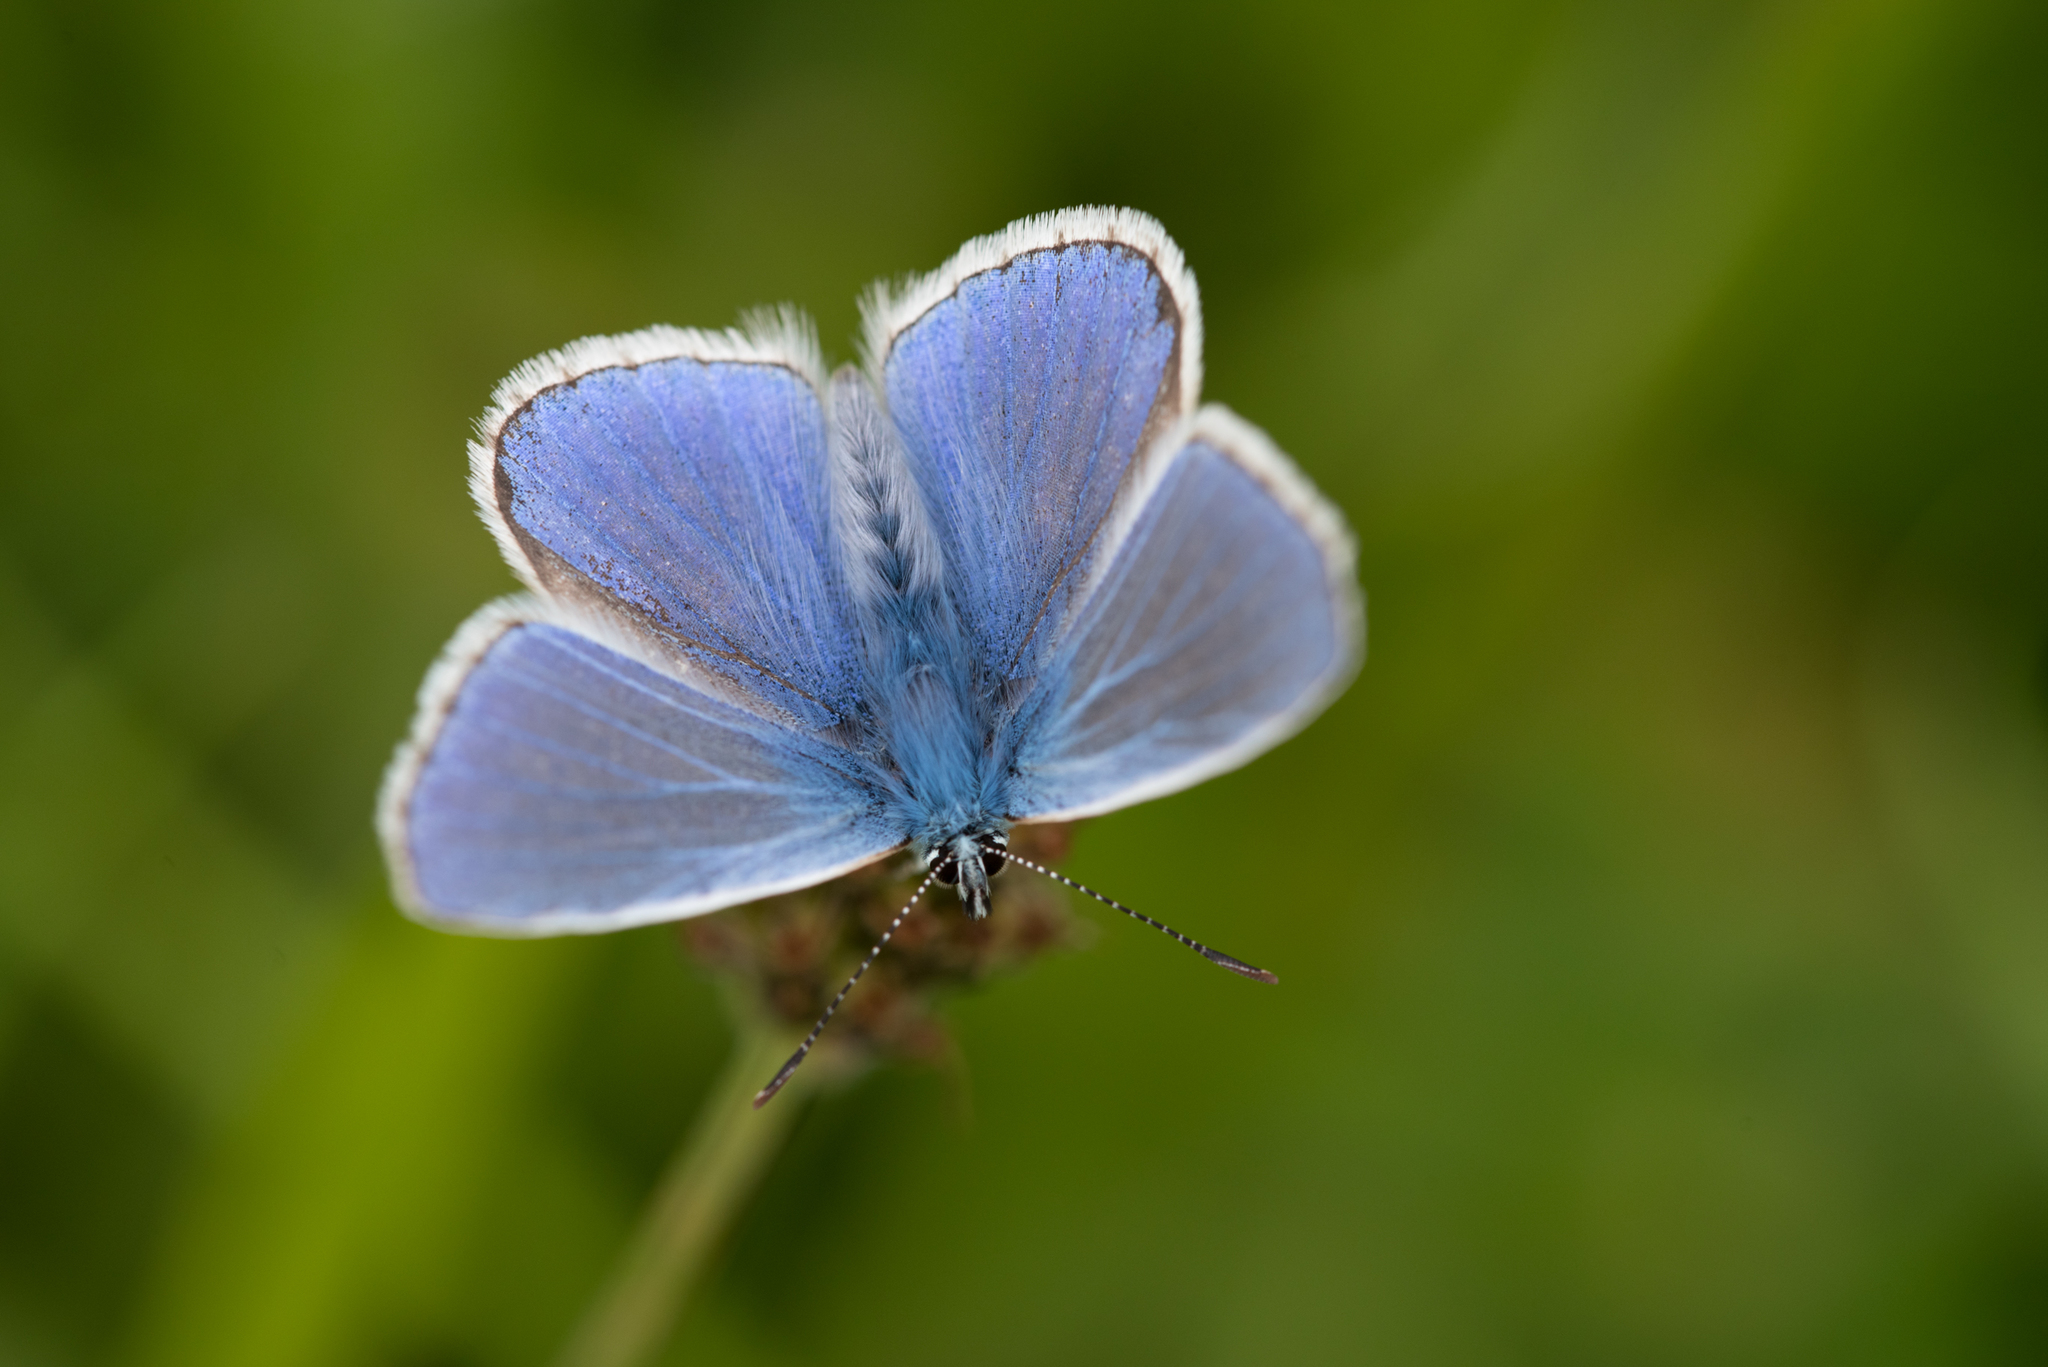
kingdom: Animalia
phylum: Arthropoda
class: Insecta
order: Lepidoptera
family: Lycaenidae
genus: Polyommatus
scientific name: Polyommatus icarus
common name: Common blue
